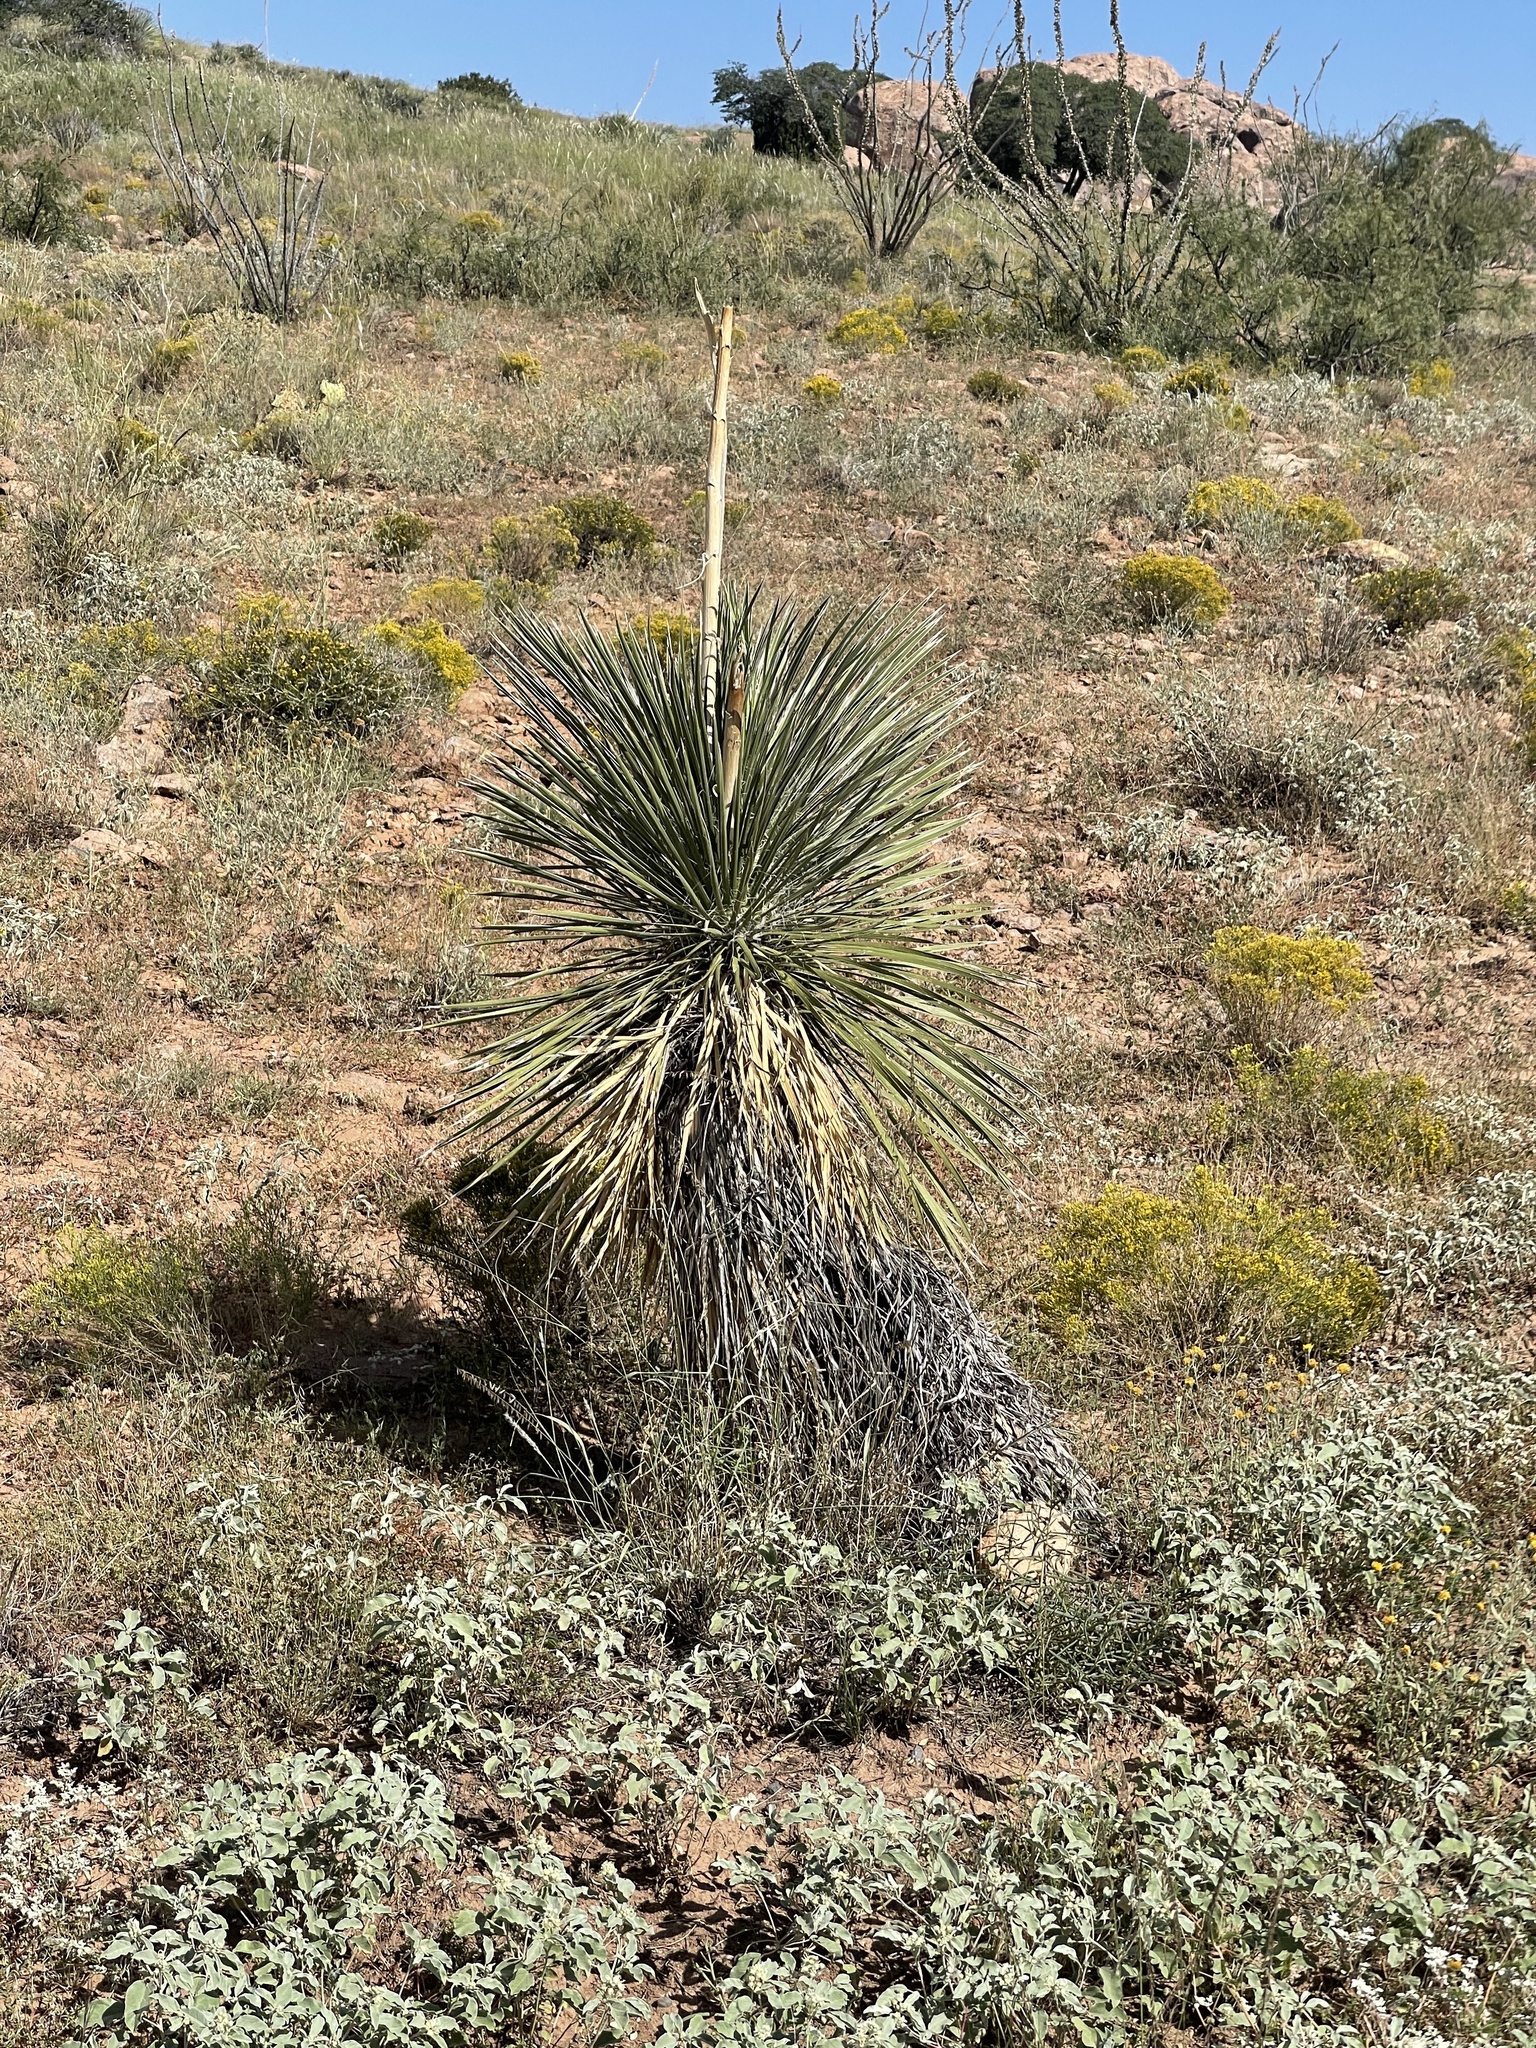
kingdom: Plantae
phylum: Tracheophyta
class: Liliopsida
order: Asparagales
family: Asparagaceae
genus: Yucca
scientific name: Yucca elata
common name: Palmella
